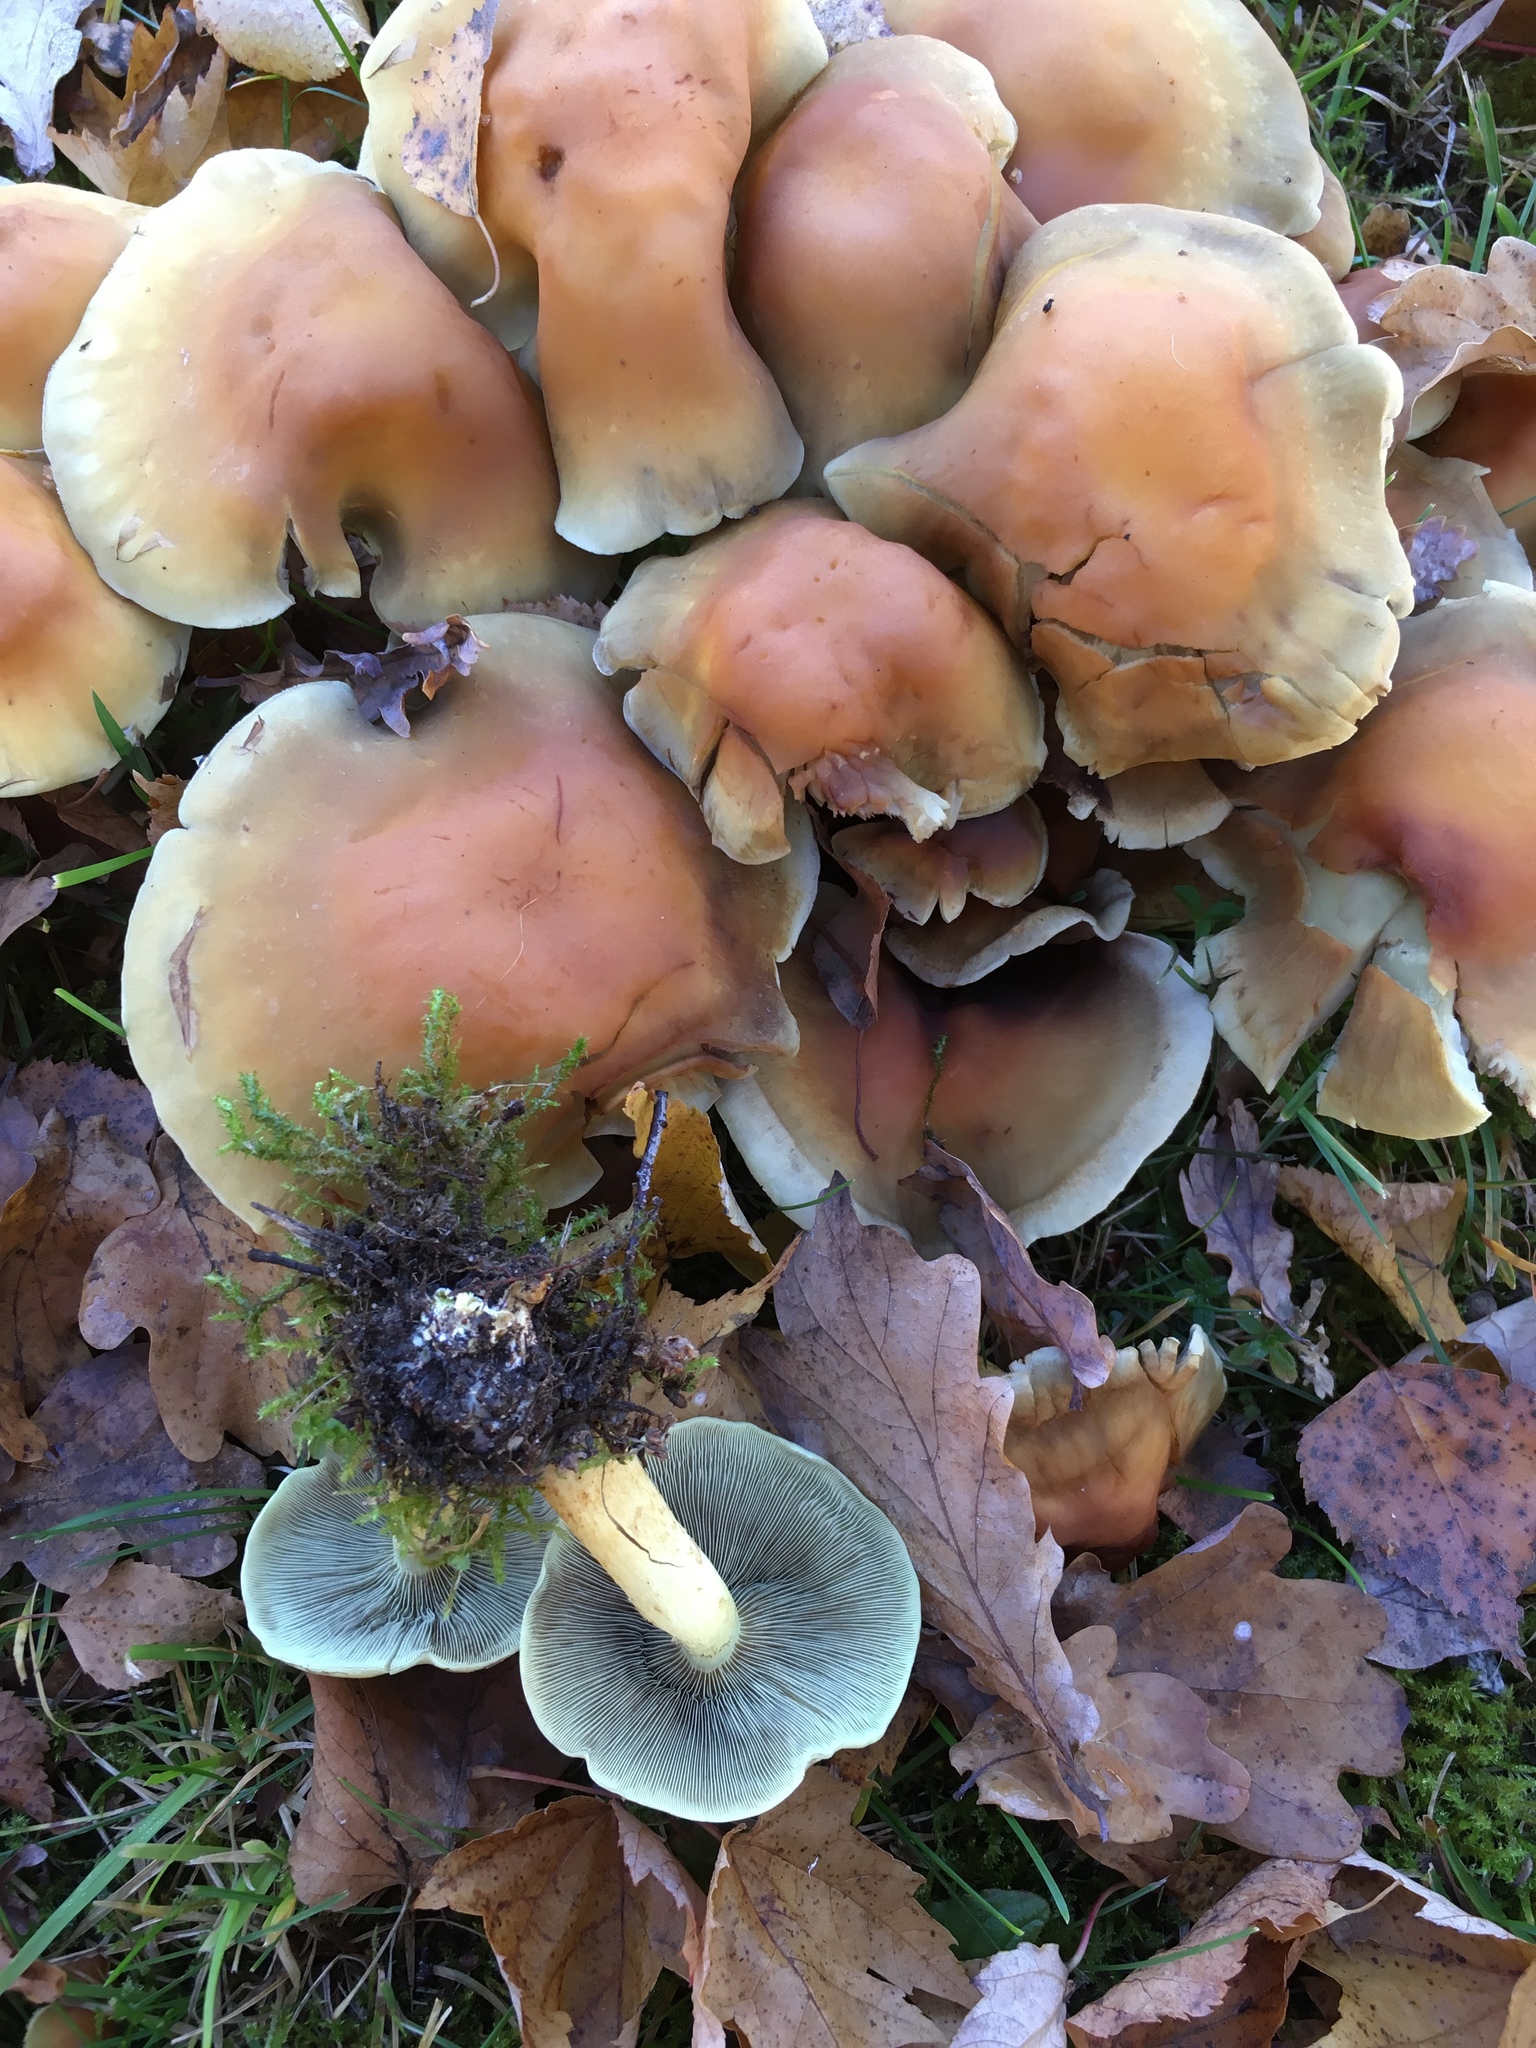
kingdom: Fungi
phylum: Basidiomycota
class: Agaricomycetes
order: Agaricales
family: Strophariaceae
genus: Hypholoma
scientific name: Hypholoma fasciculare
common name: Sulphur tuft
